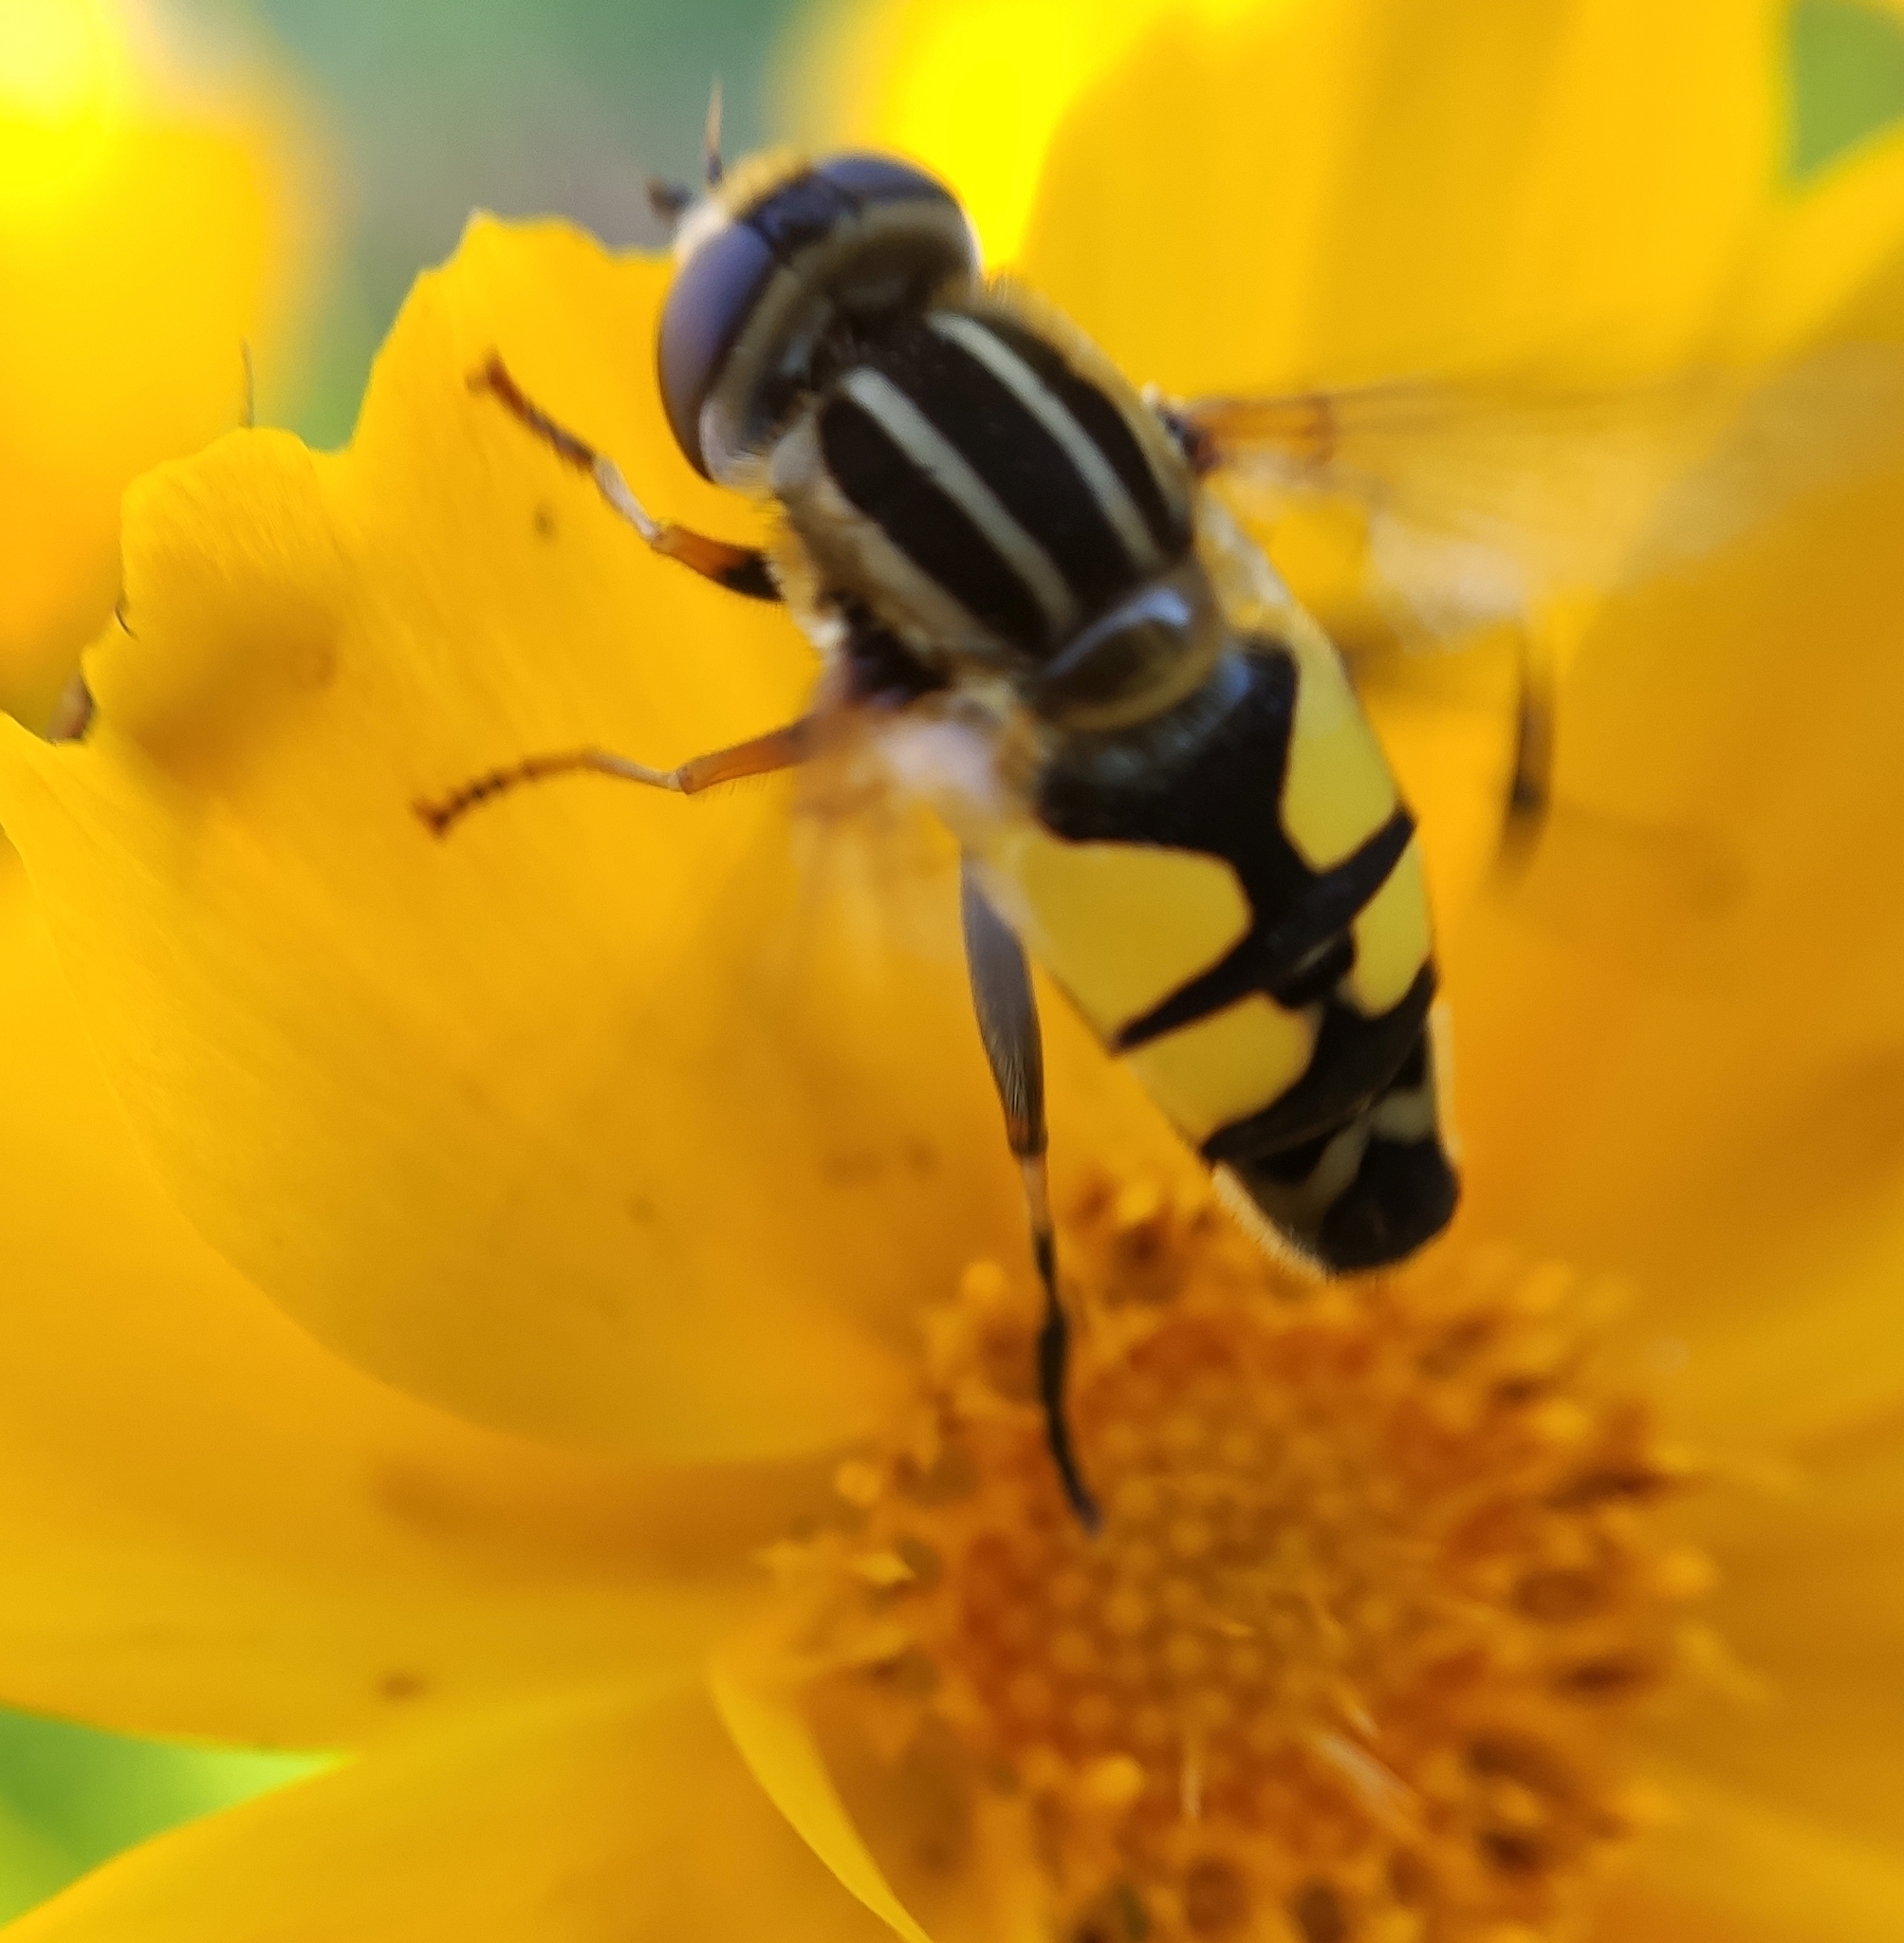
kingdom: Animalia
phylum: Arthropoda
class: Insecta
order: Diptera
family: Syrphidae
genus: Helophilus
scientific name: Helophilus trivittatus
